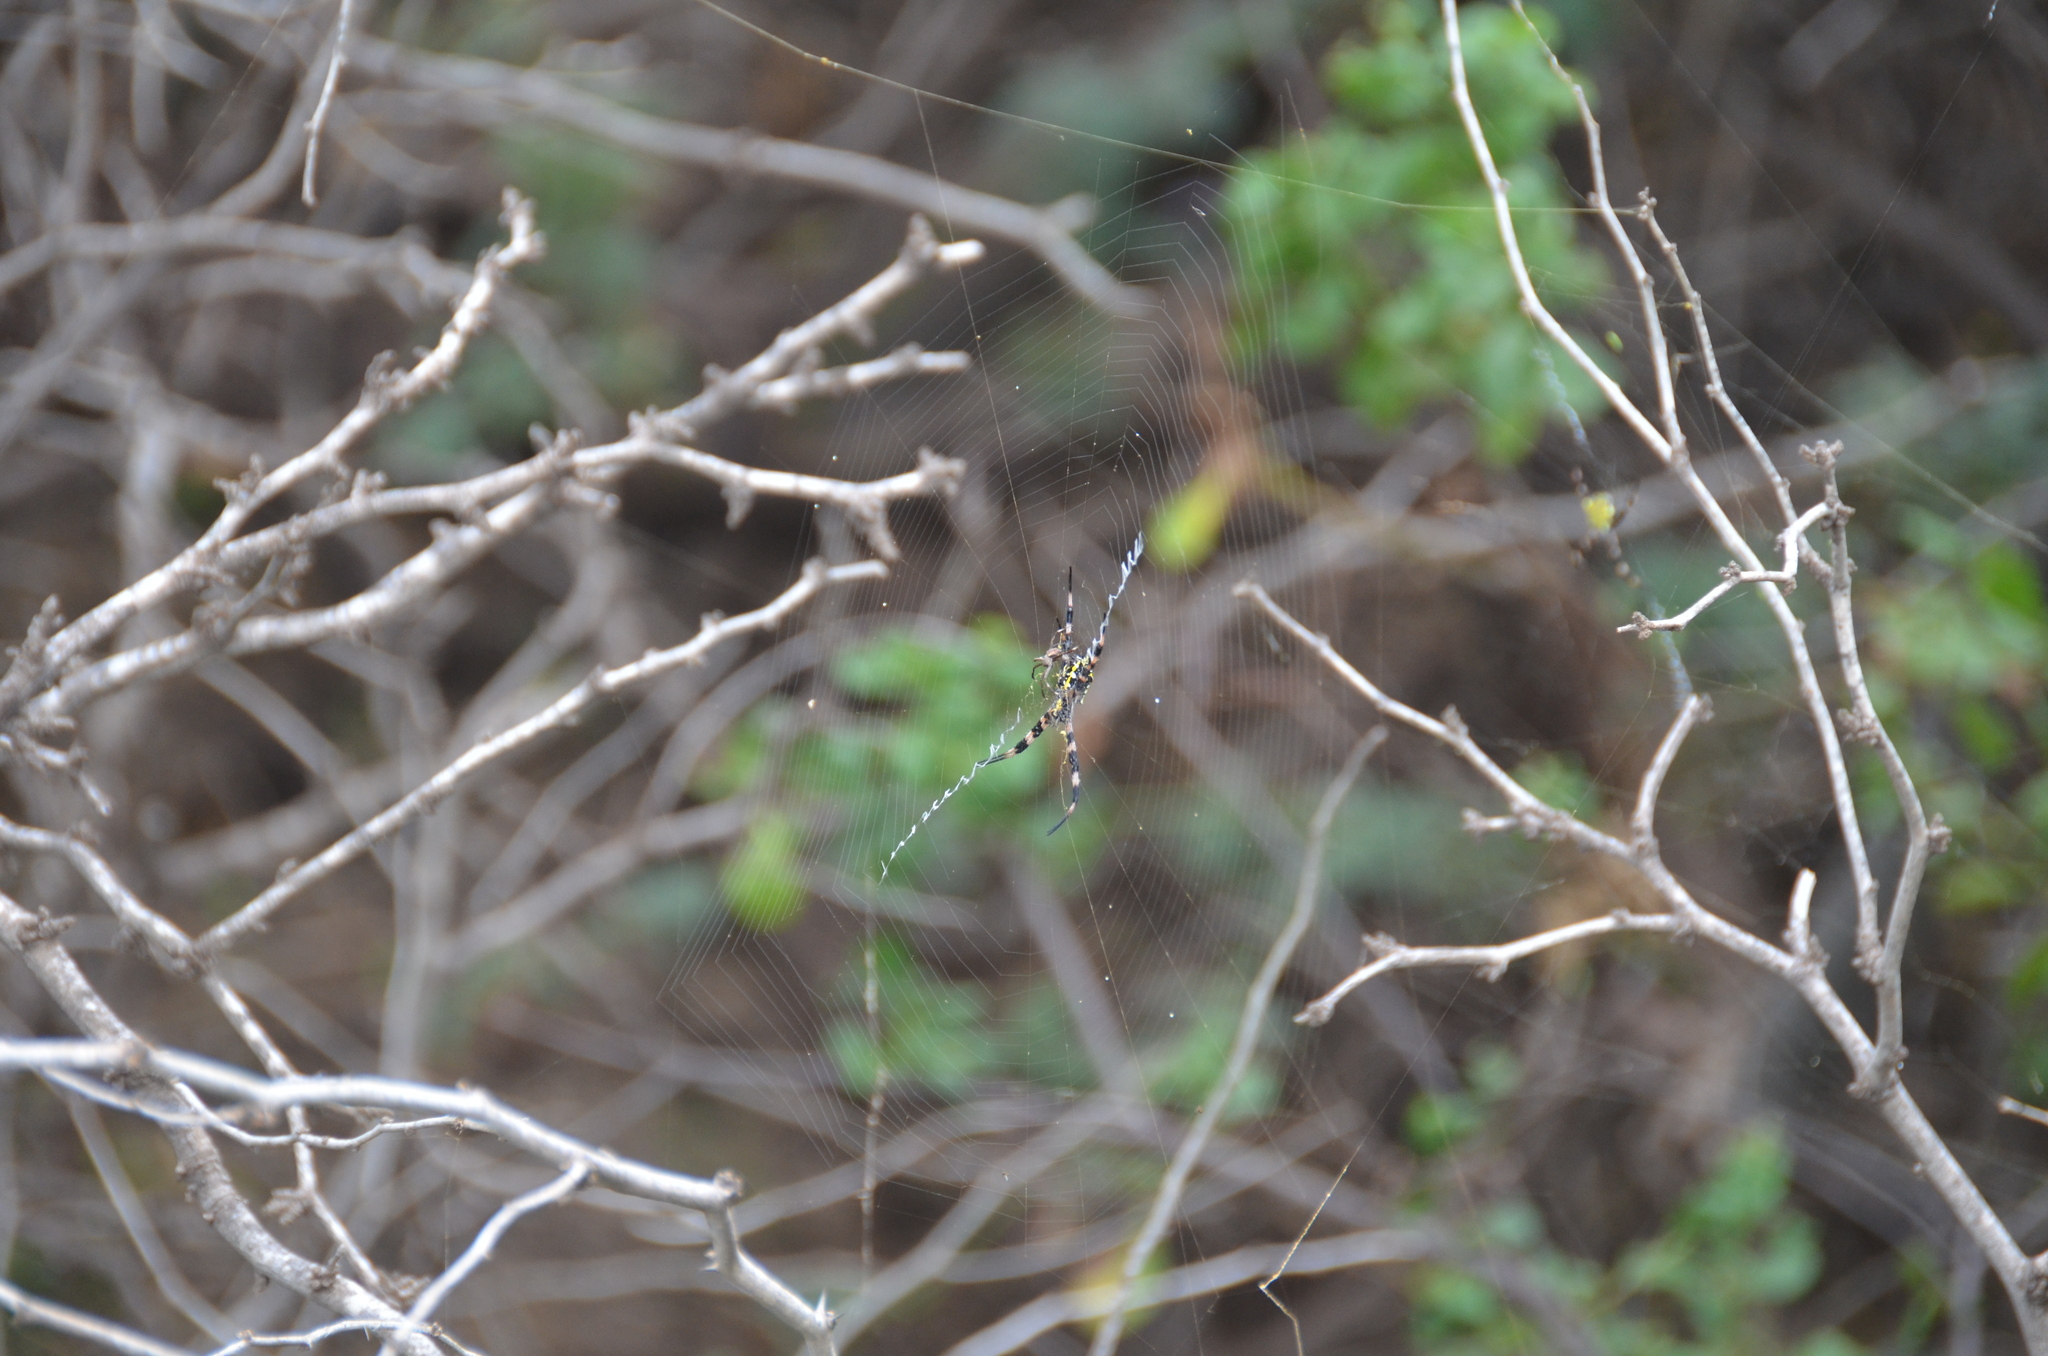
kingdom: Animalia
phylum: Arthropoda
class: Arachnida
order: Araneae
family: Araneidae
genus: Argiope
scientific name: Argiope appensa
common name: Garden spider
